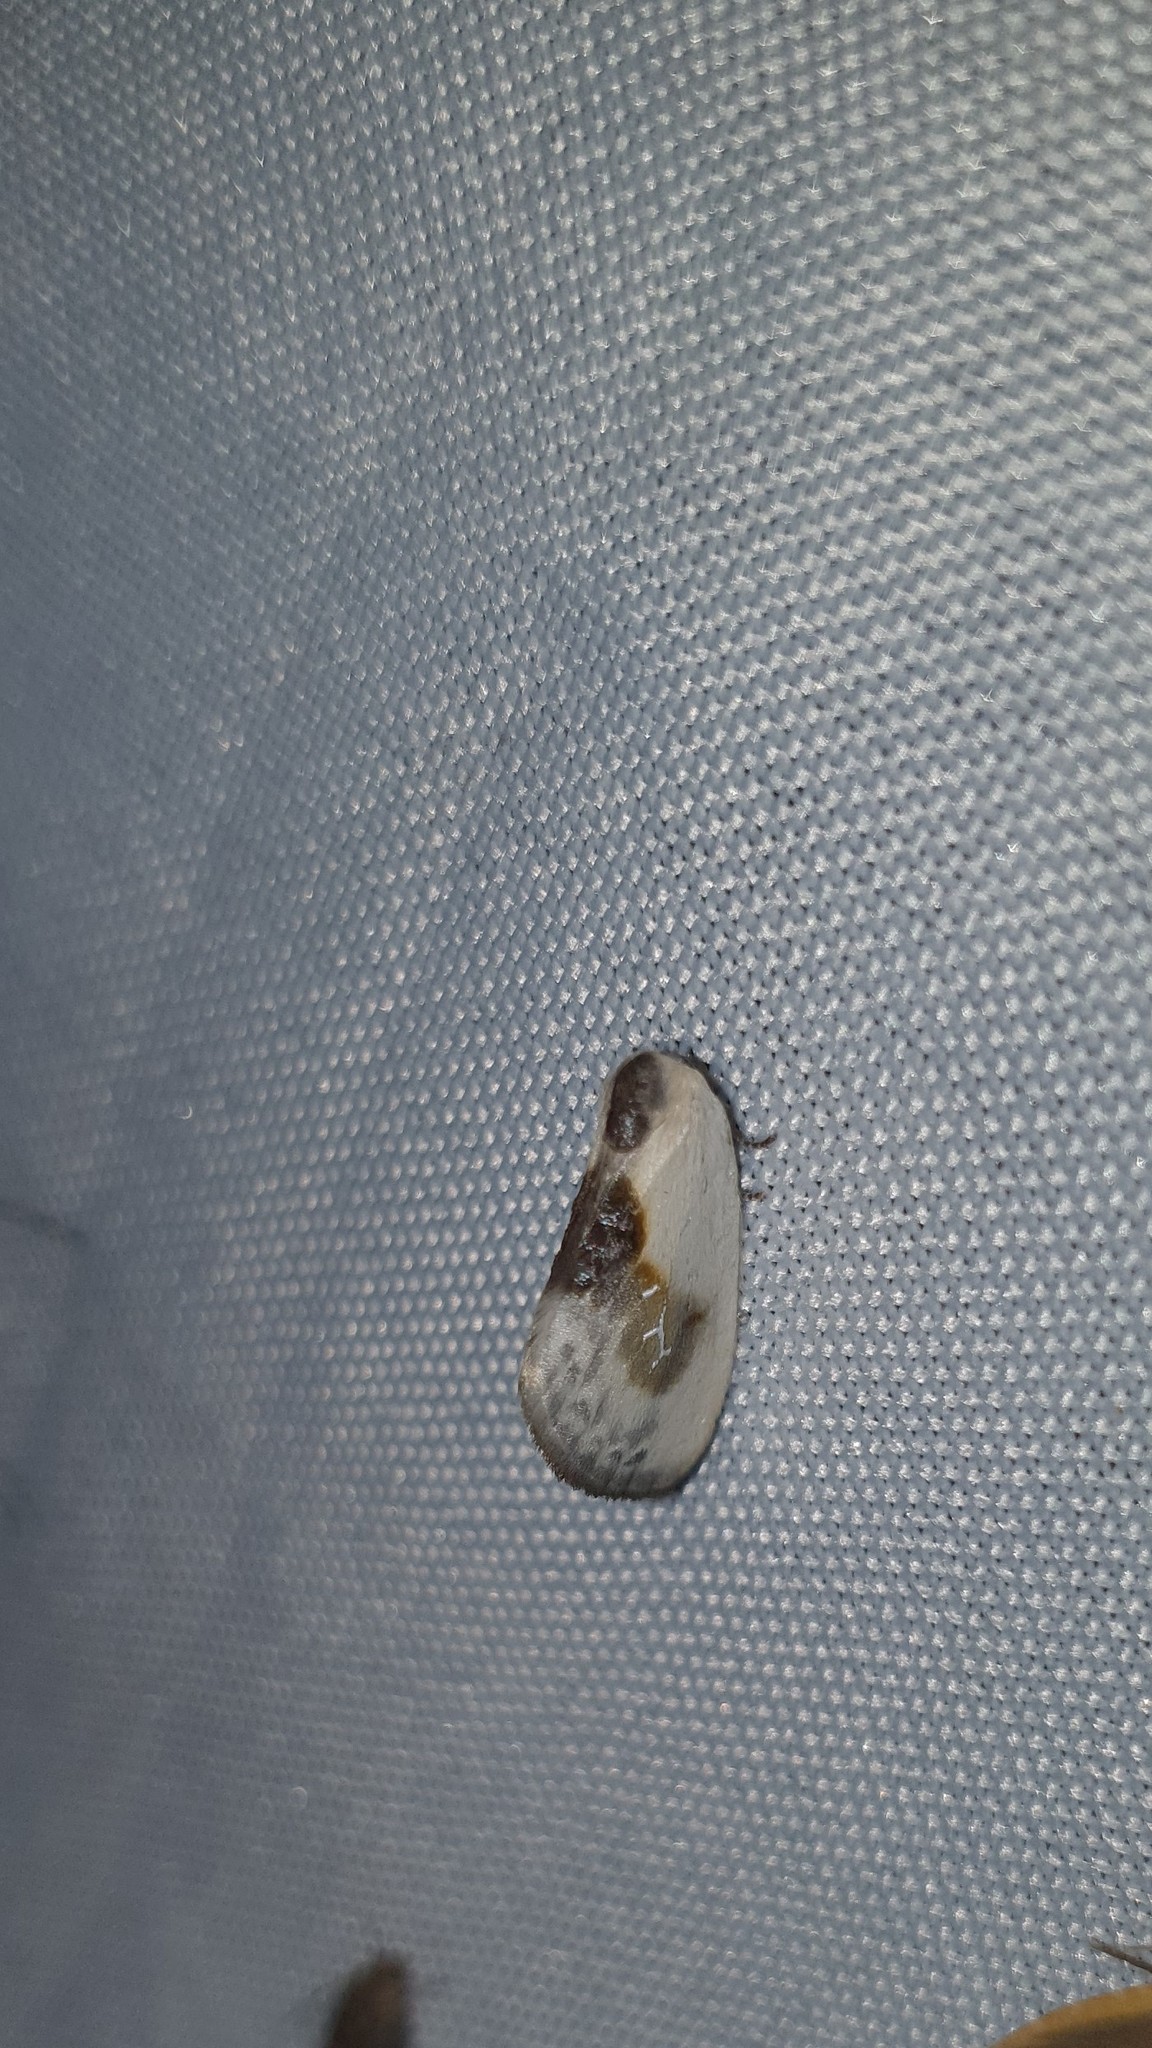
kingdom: Animalia
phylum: Arthropoda
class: Insecta
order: Lepidoptera
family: Drepanidae
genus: Cilix
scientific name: Cilix glaucata
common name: Chinese character
